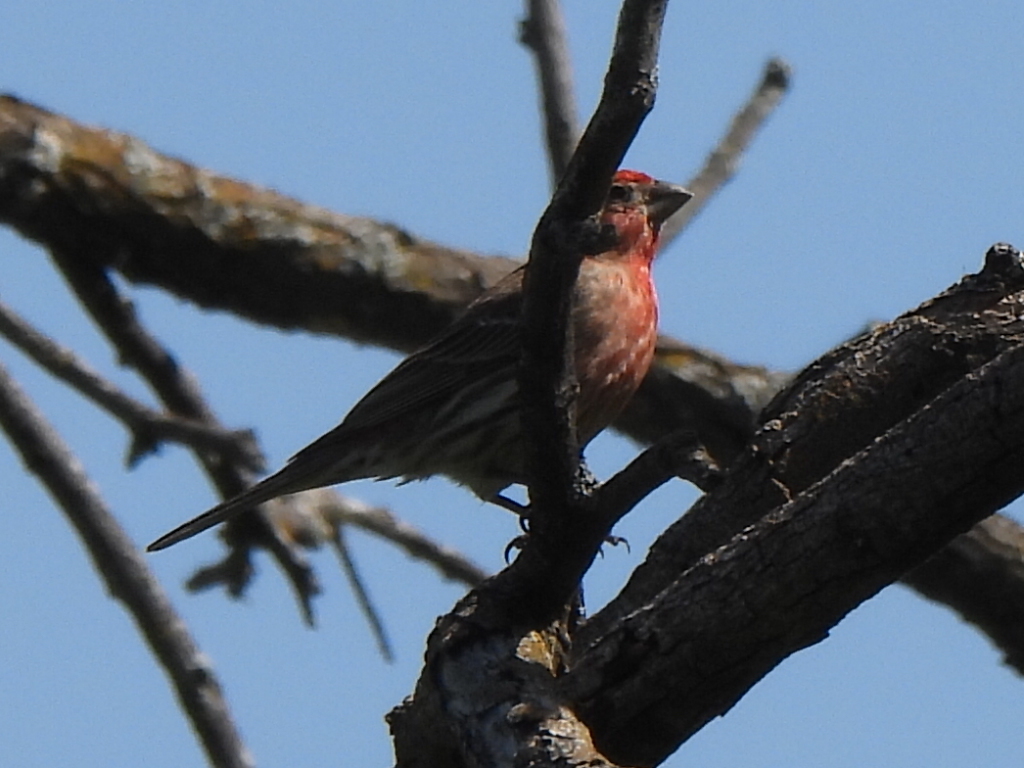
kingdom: Animalia
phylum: Chordata
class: Aves
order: Passeriformes
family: Fringillidae
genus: Haemorhous
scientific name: Haemorhous mexicanus
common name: House finch
